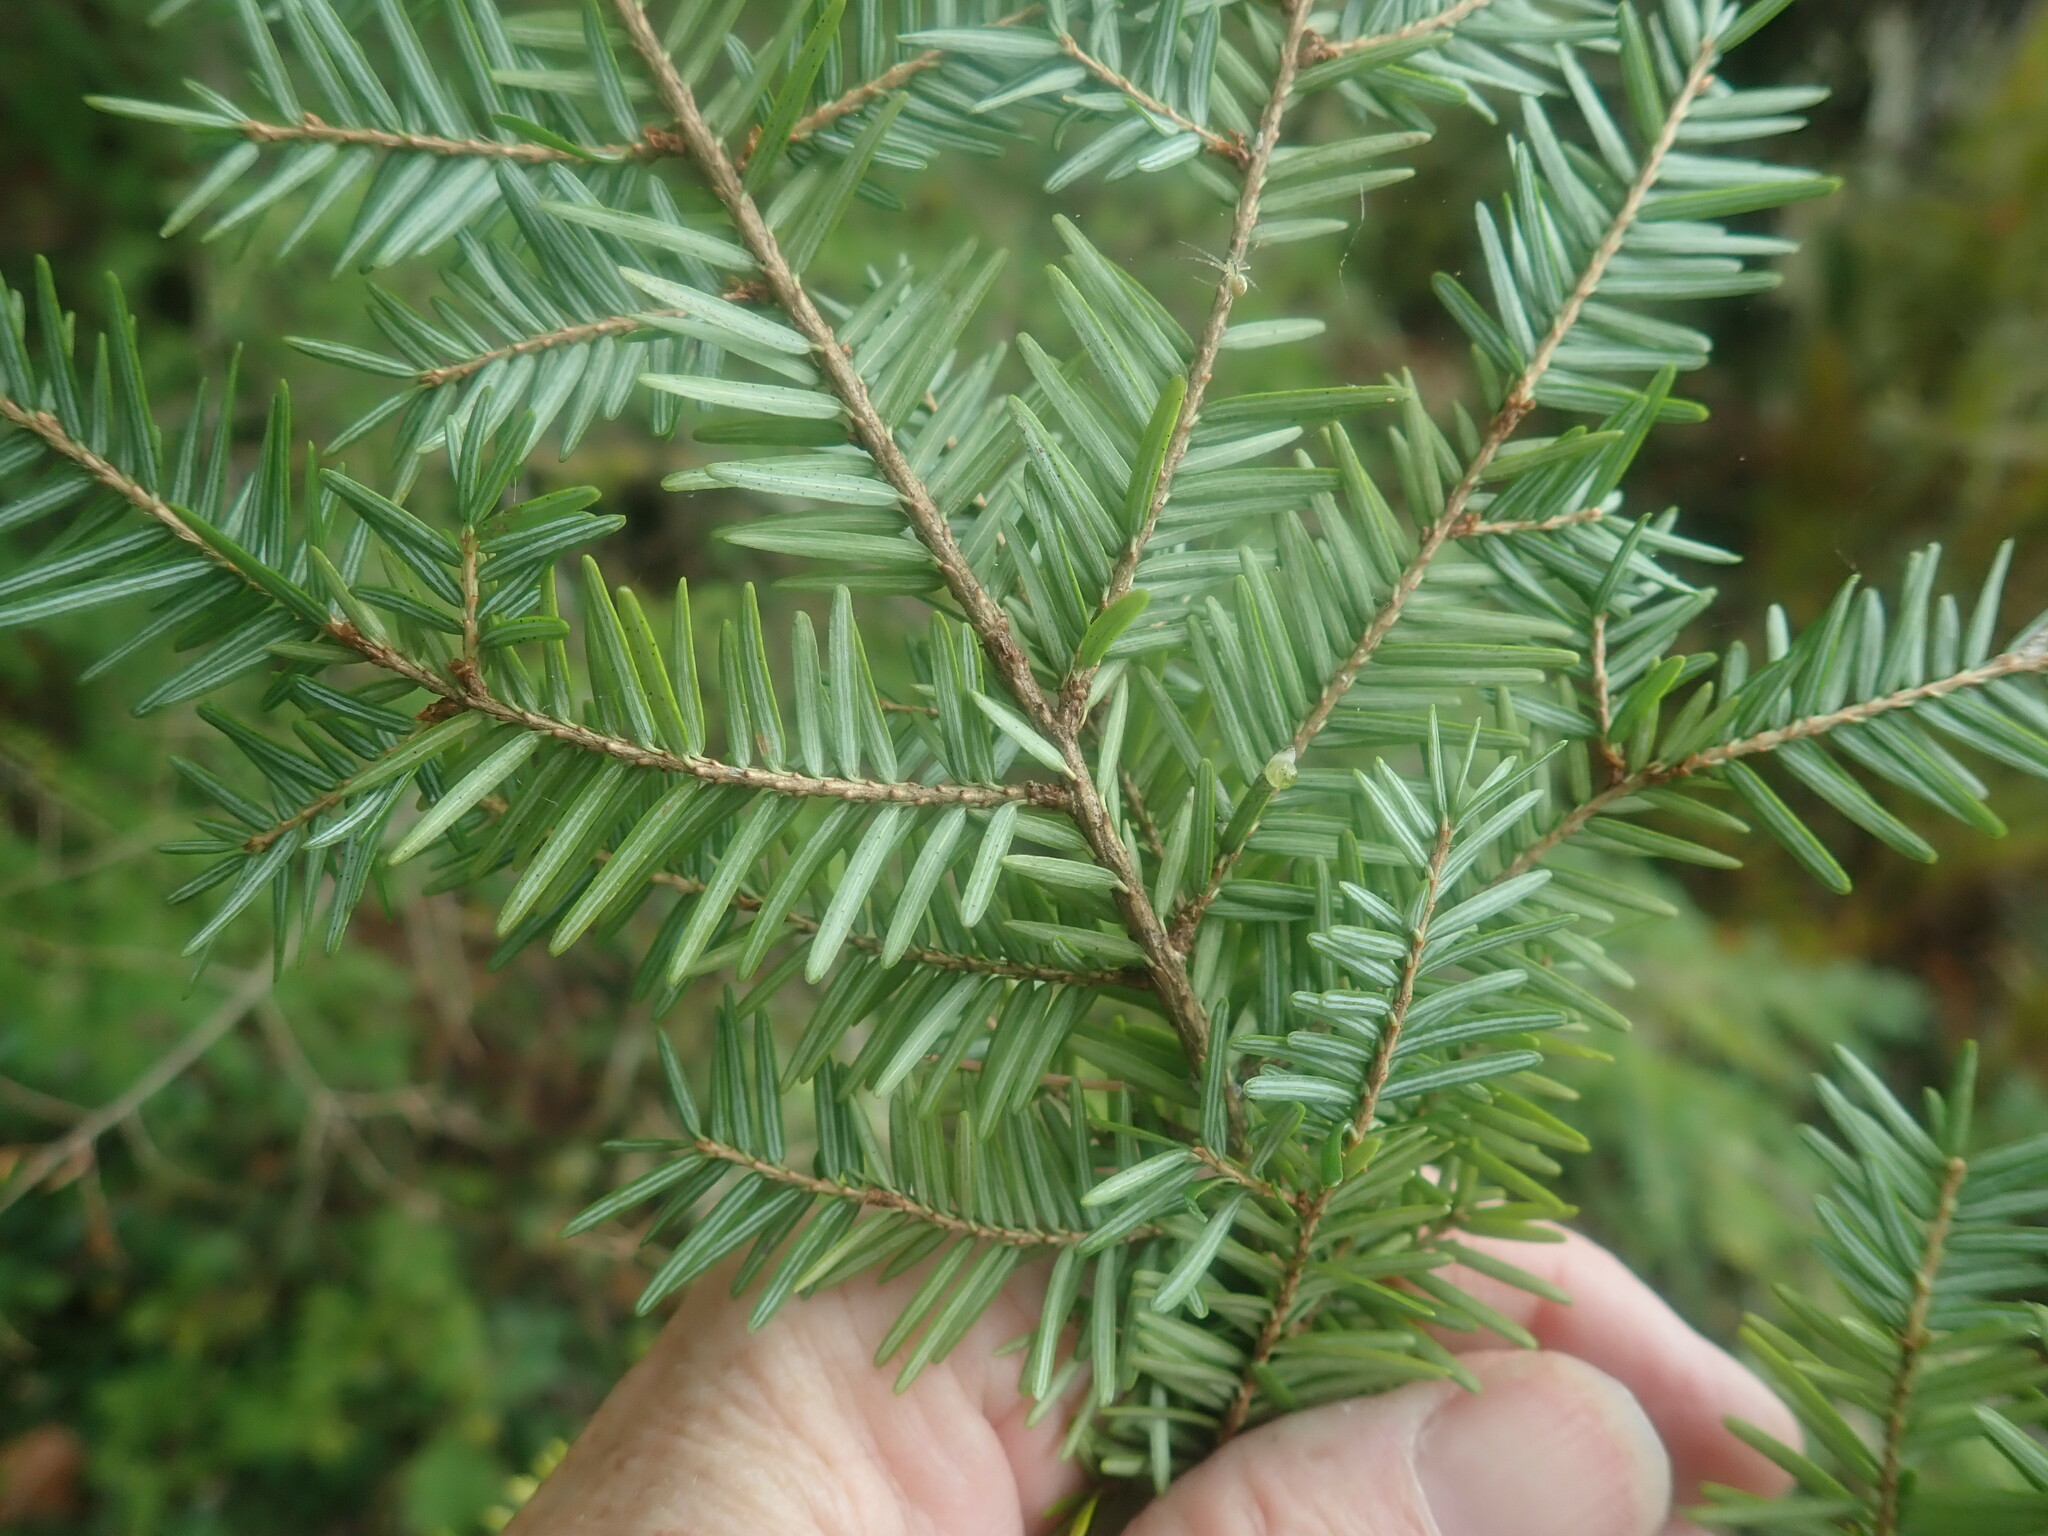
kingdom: Plantae
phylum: Tracheophyta
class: Pinopsida
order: Pinales
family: Pinaceae
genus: Tsuga
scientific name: Tsuga canadensis
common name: Eastern hemlock
